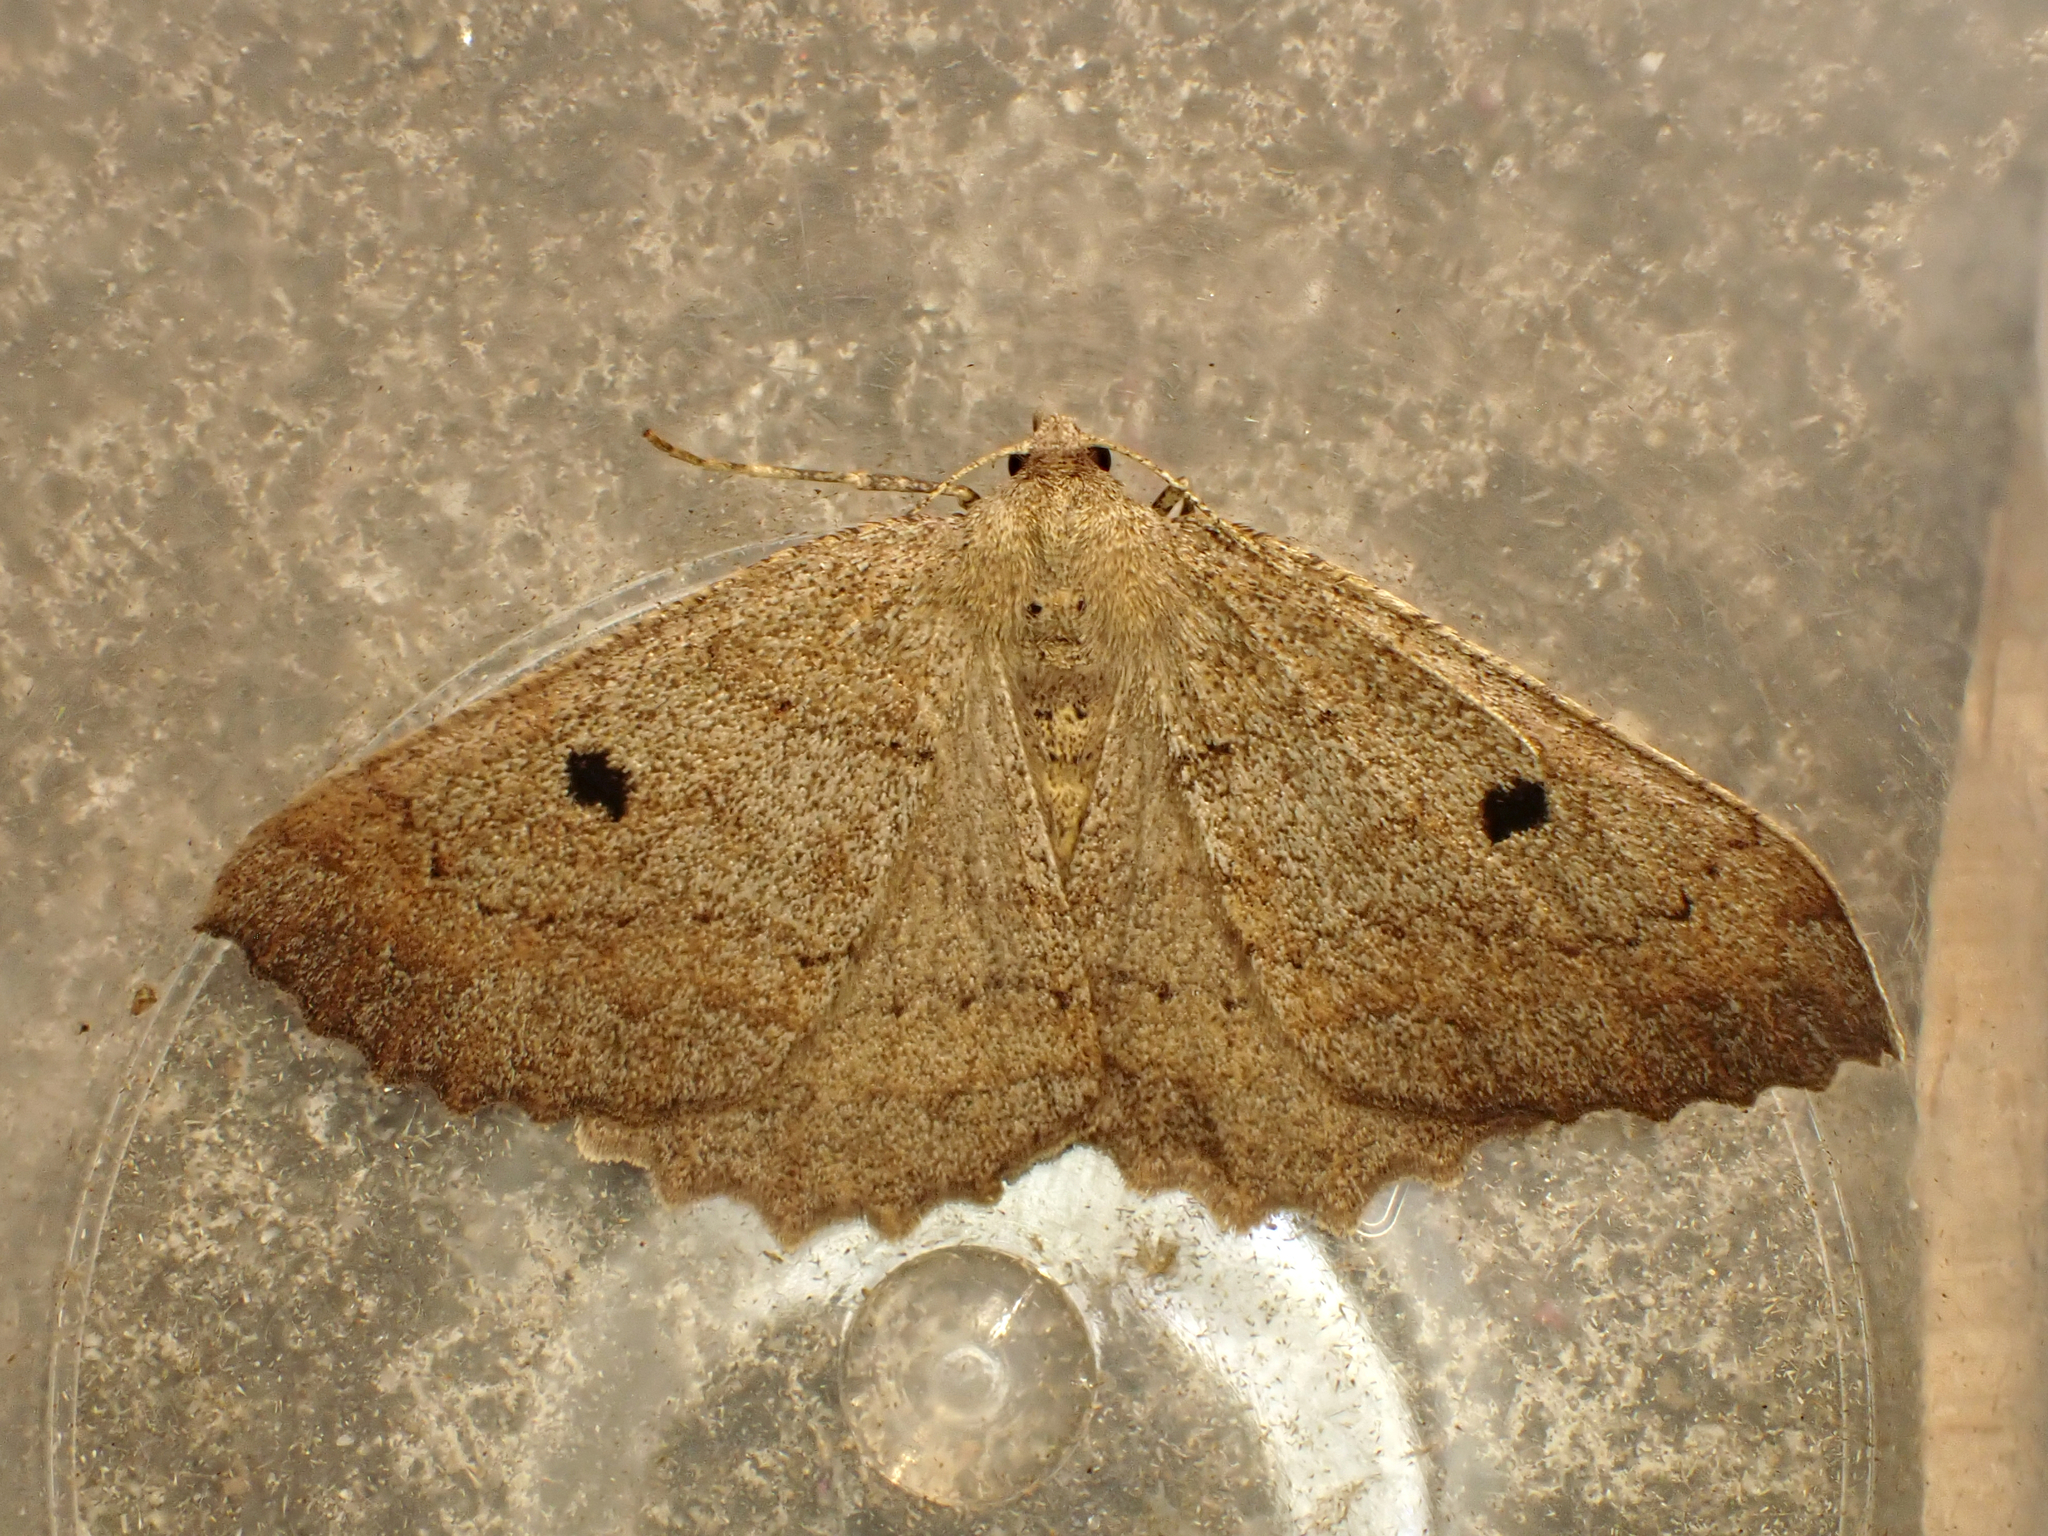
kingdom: Animalia
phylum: Arthropoda
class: Insecta
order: Lepidoptera
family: Geometridae
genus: Cleora
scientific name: Cleora scriptaria
